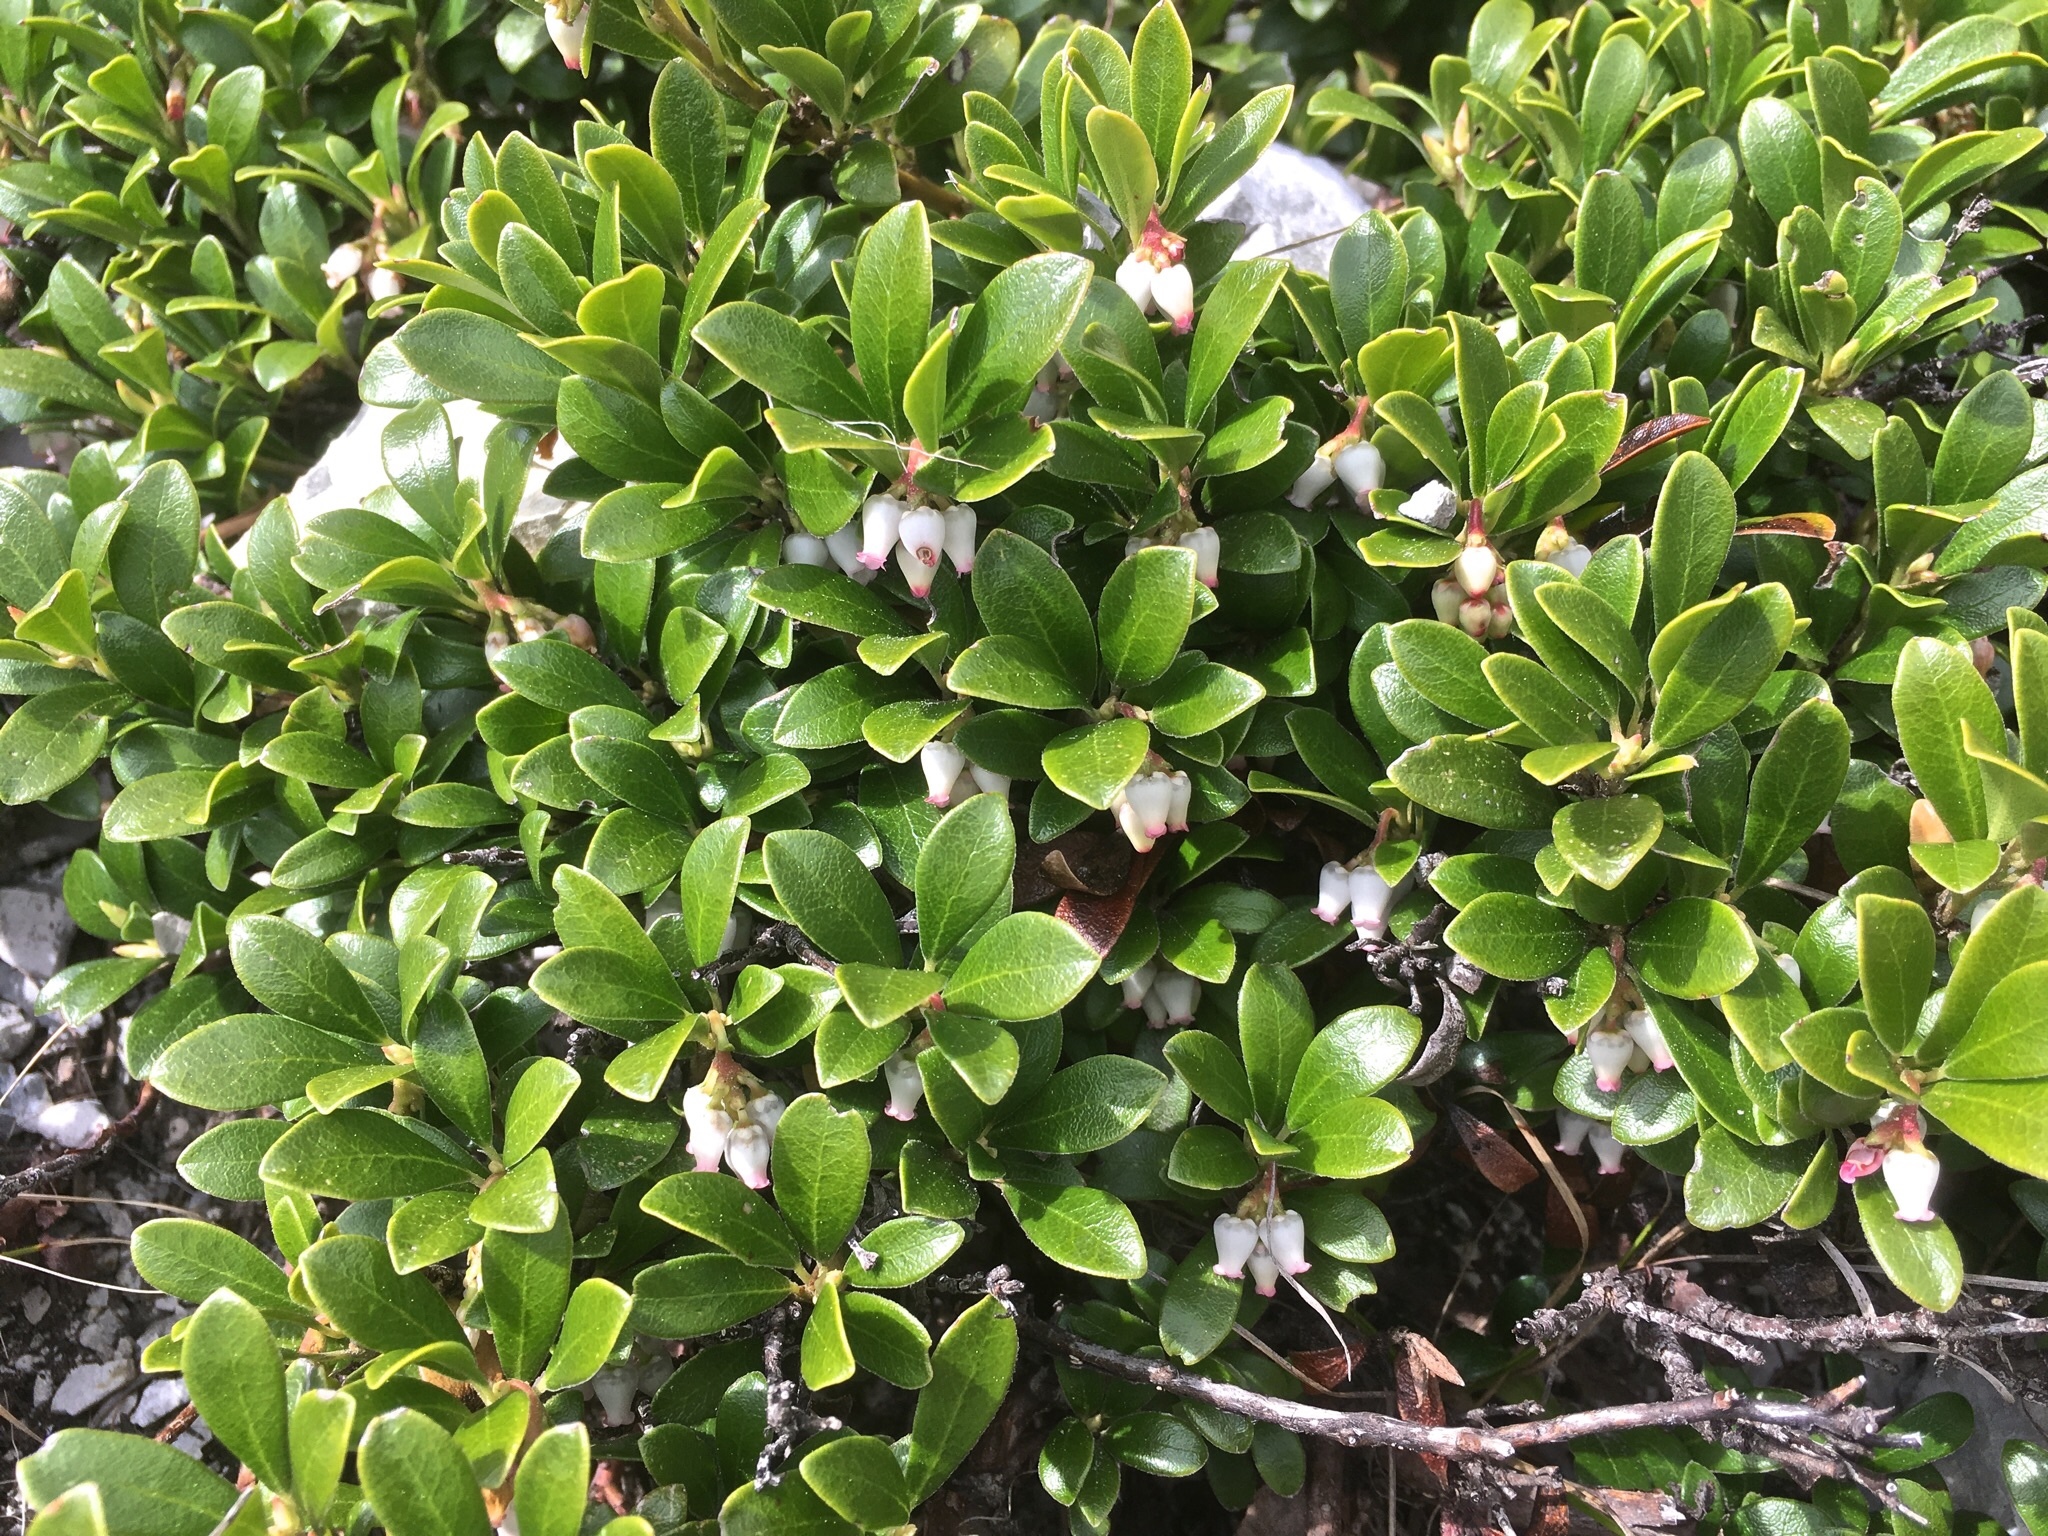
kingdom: Plantae
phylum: Tracheophyta
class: Magnoliopsida
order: Ericales
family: Ericaceae
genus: Arctostaphylos
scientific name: Arctostaphylos uva-ursi
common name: Bearberry
